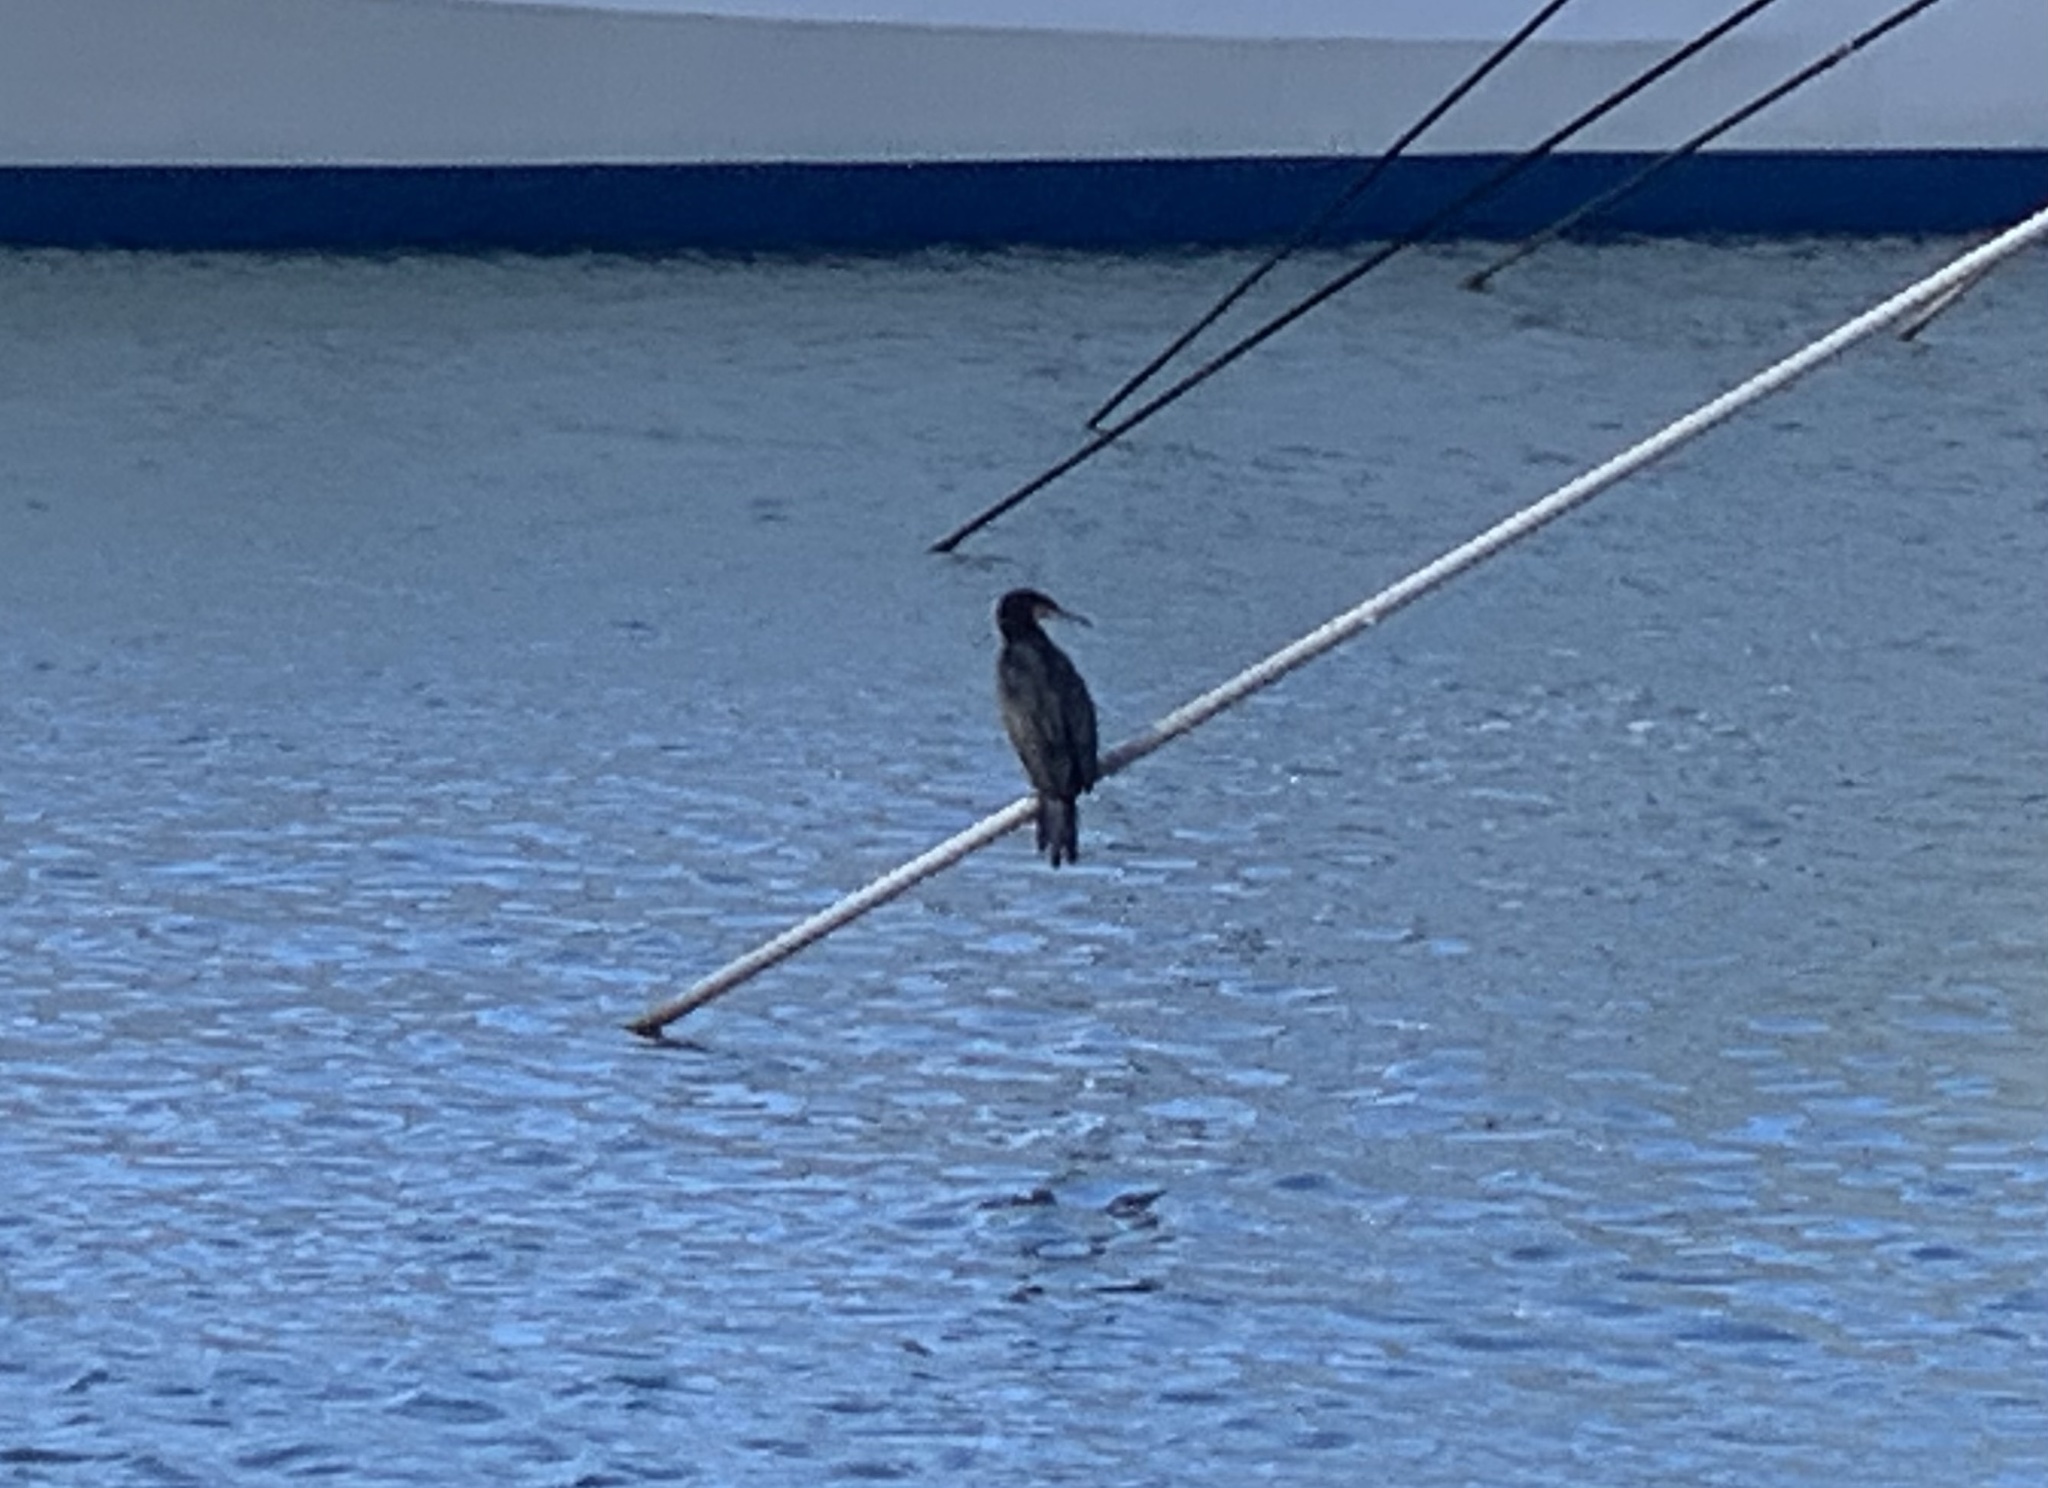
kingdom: Animalia
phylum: Chordata
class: Aves
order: Suliformes
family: Phalacrocoracidae
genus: Phalacrocorax
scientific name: Phalacrocorax carbo
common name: Great cormorant
